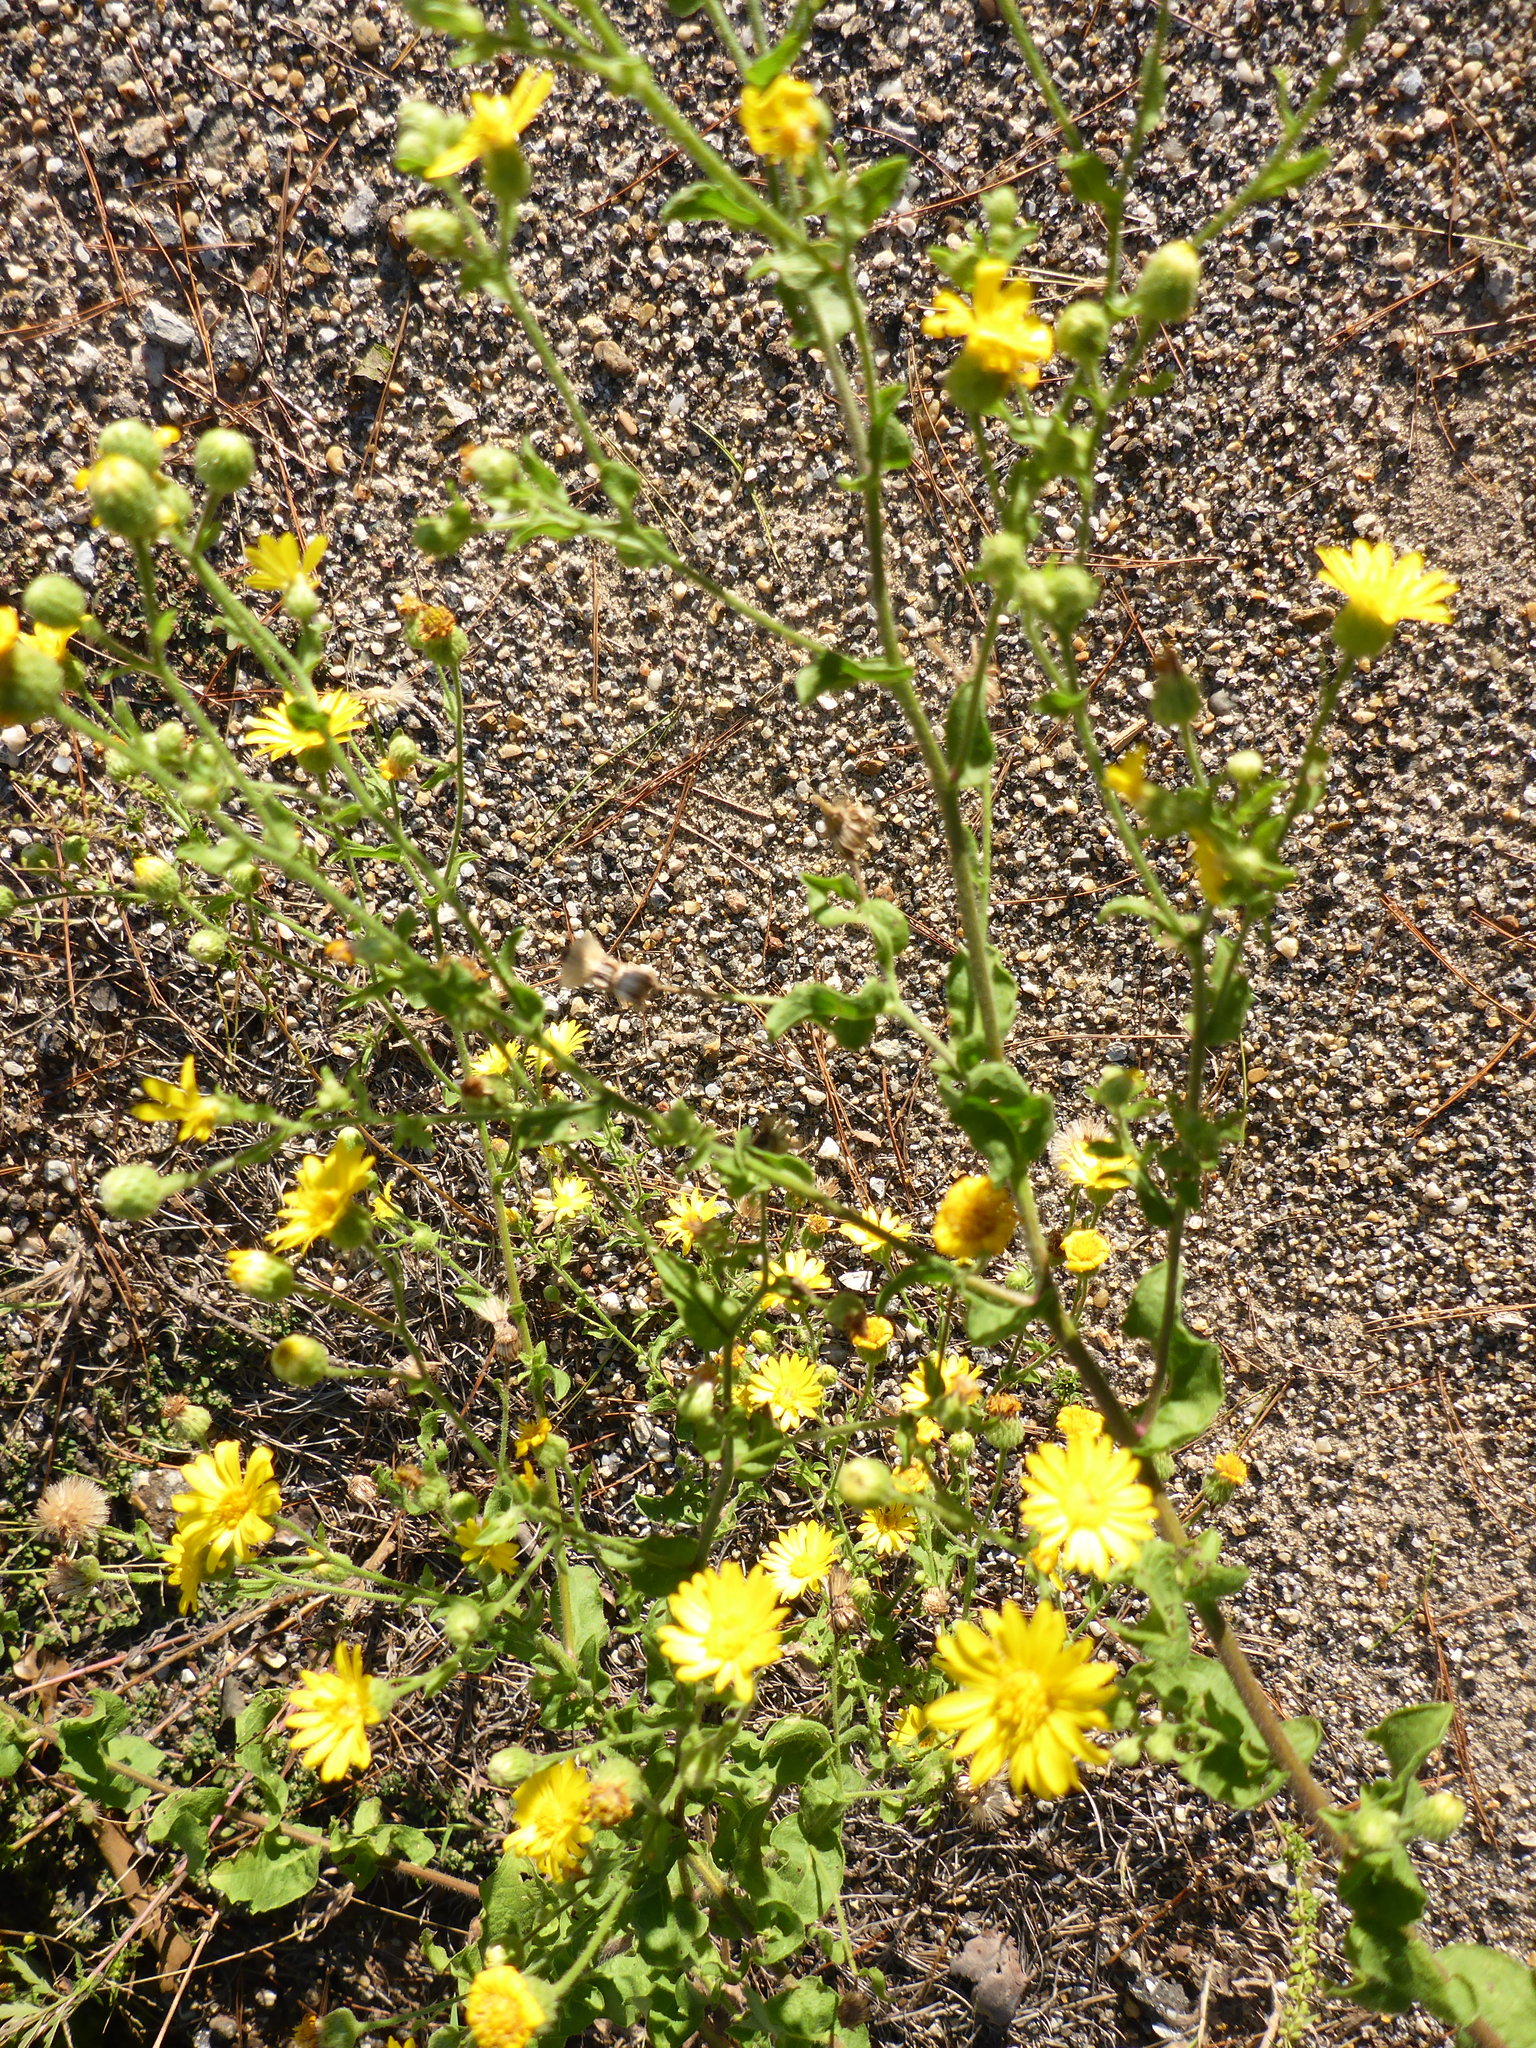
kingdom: Plantae
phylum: Tracheophyta
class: Magnoliopsida
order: Asterales
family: Asteraceae
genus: Heterotheca
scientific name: Heterotheca subaxillaris
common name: Camphorweed
